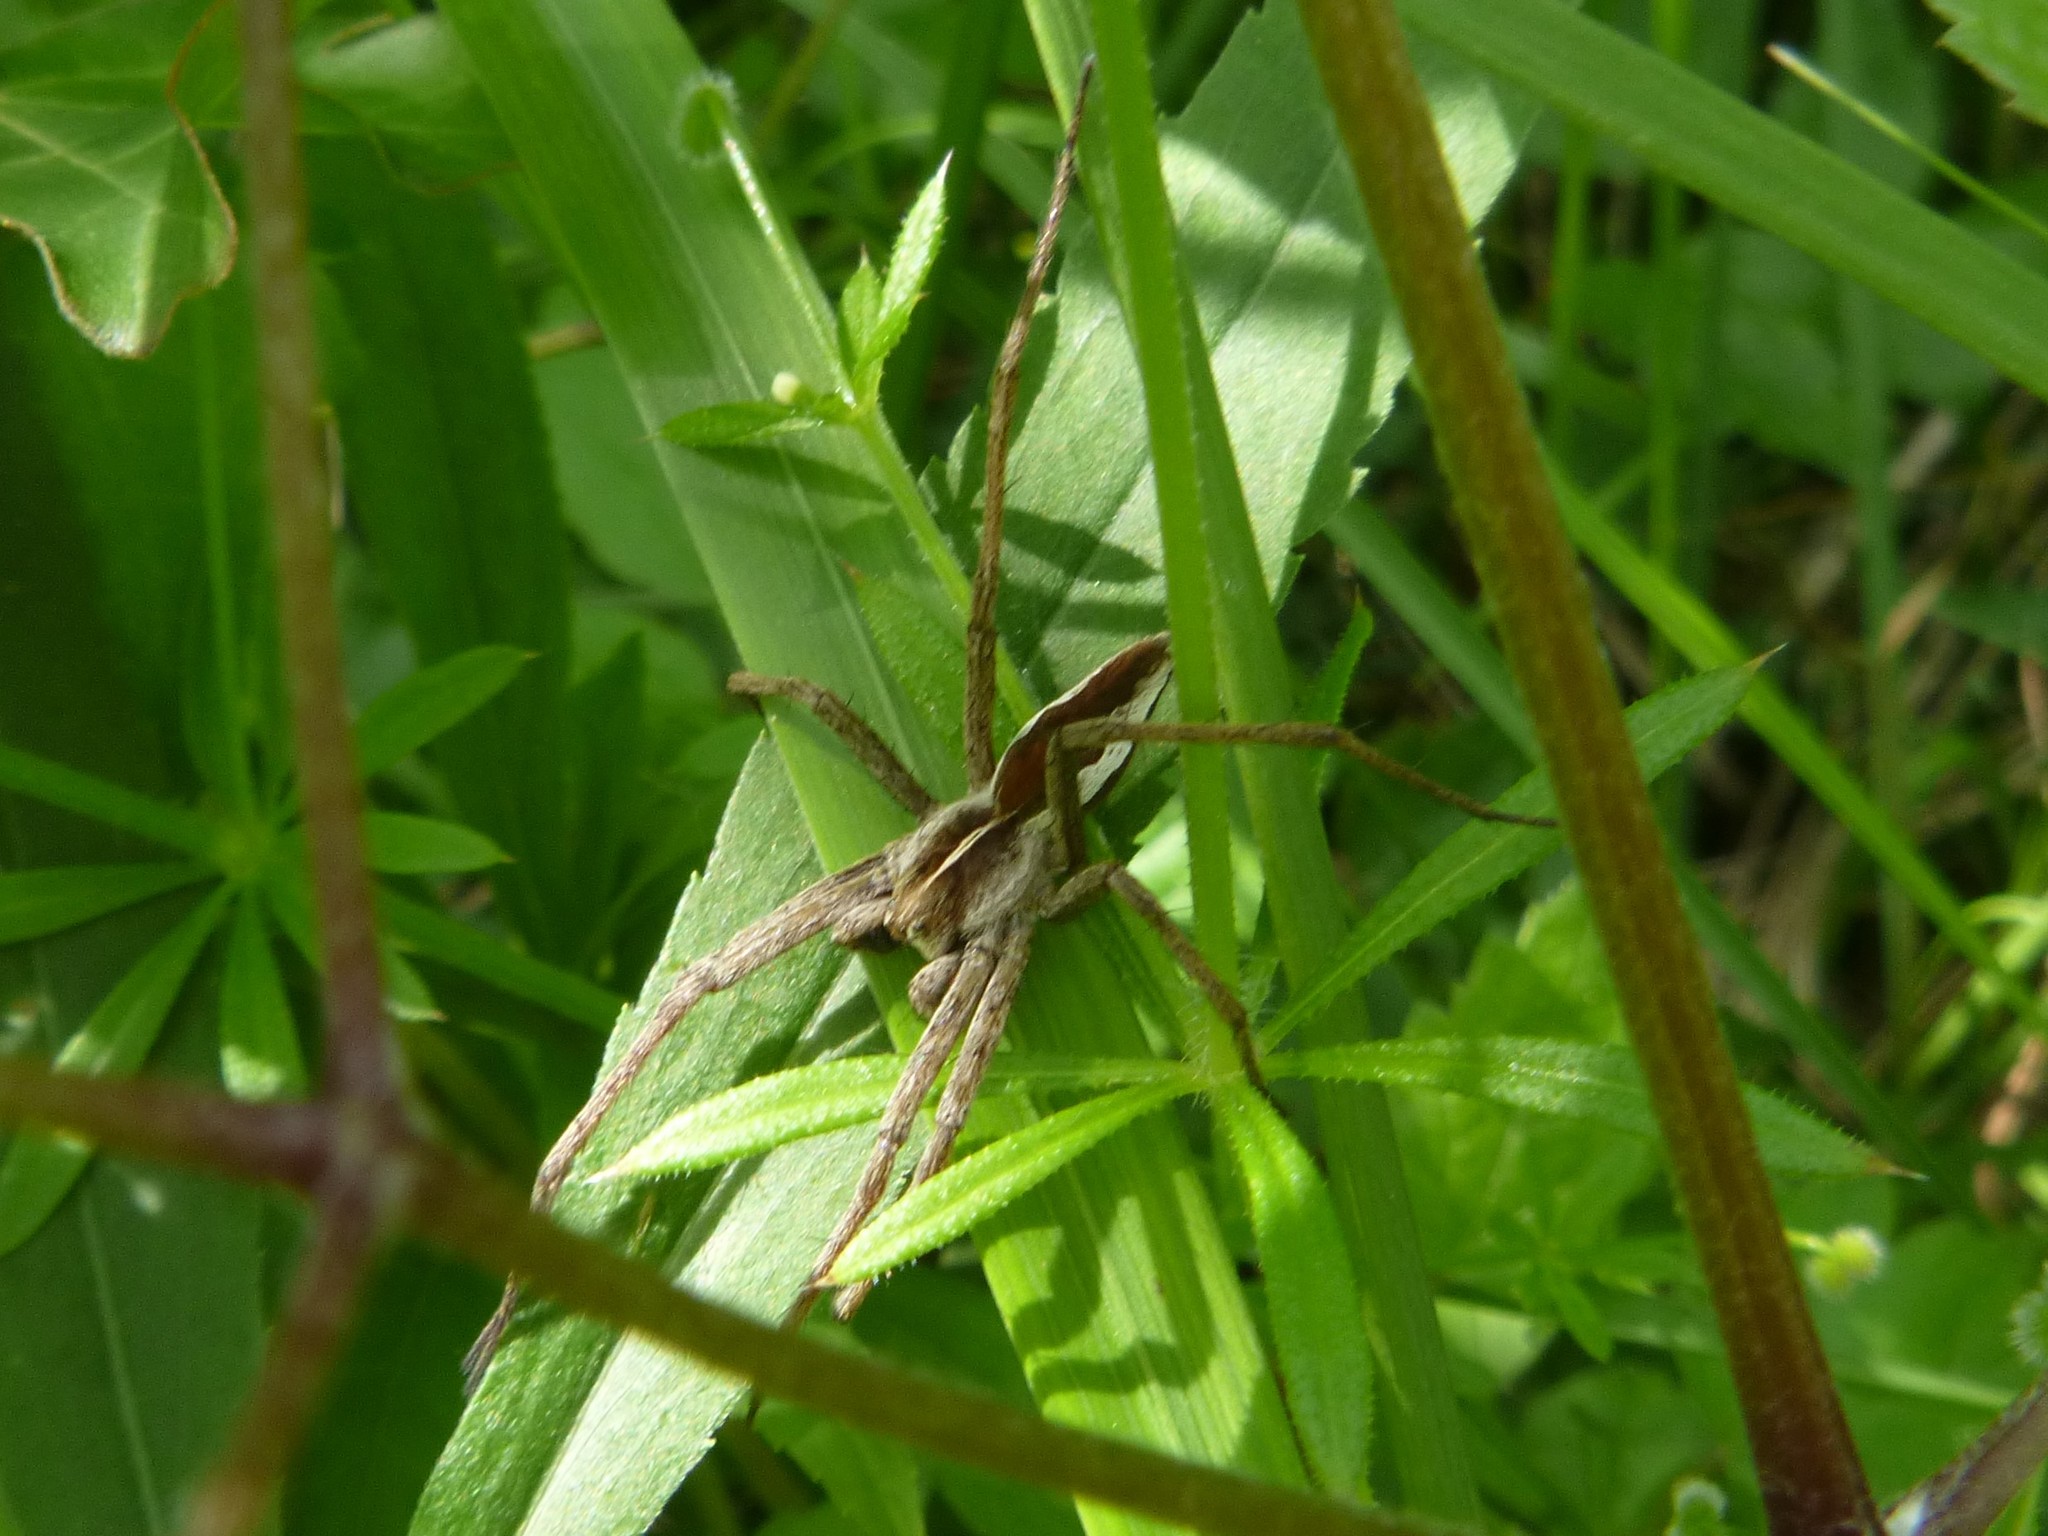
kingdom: Animalia
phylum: Arthropoda
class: Arachnida
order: Araneae
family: Pisauridae
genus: Pisaura
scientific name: Pisaura mirabilis
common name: Tent spider
